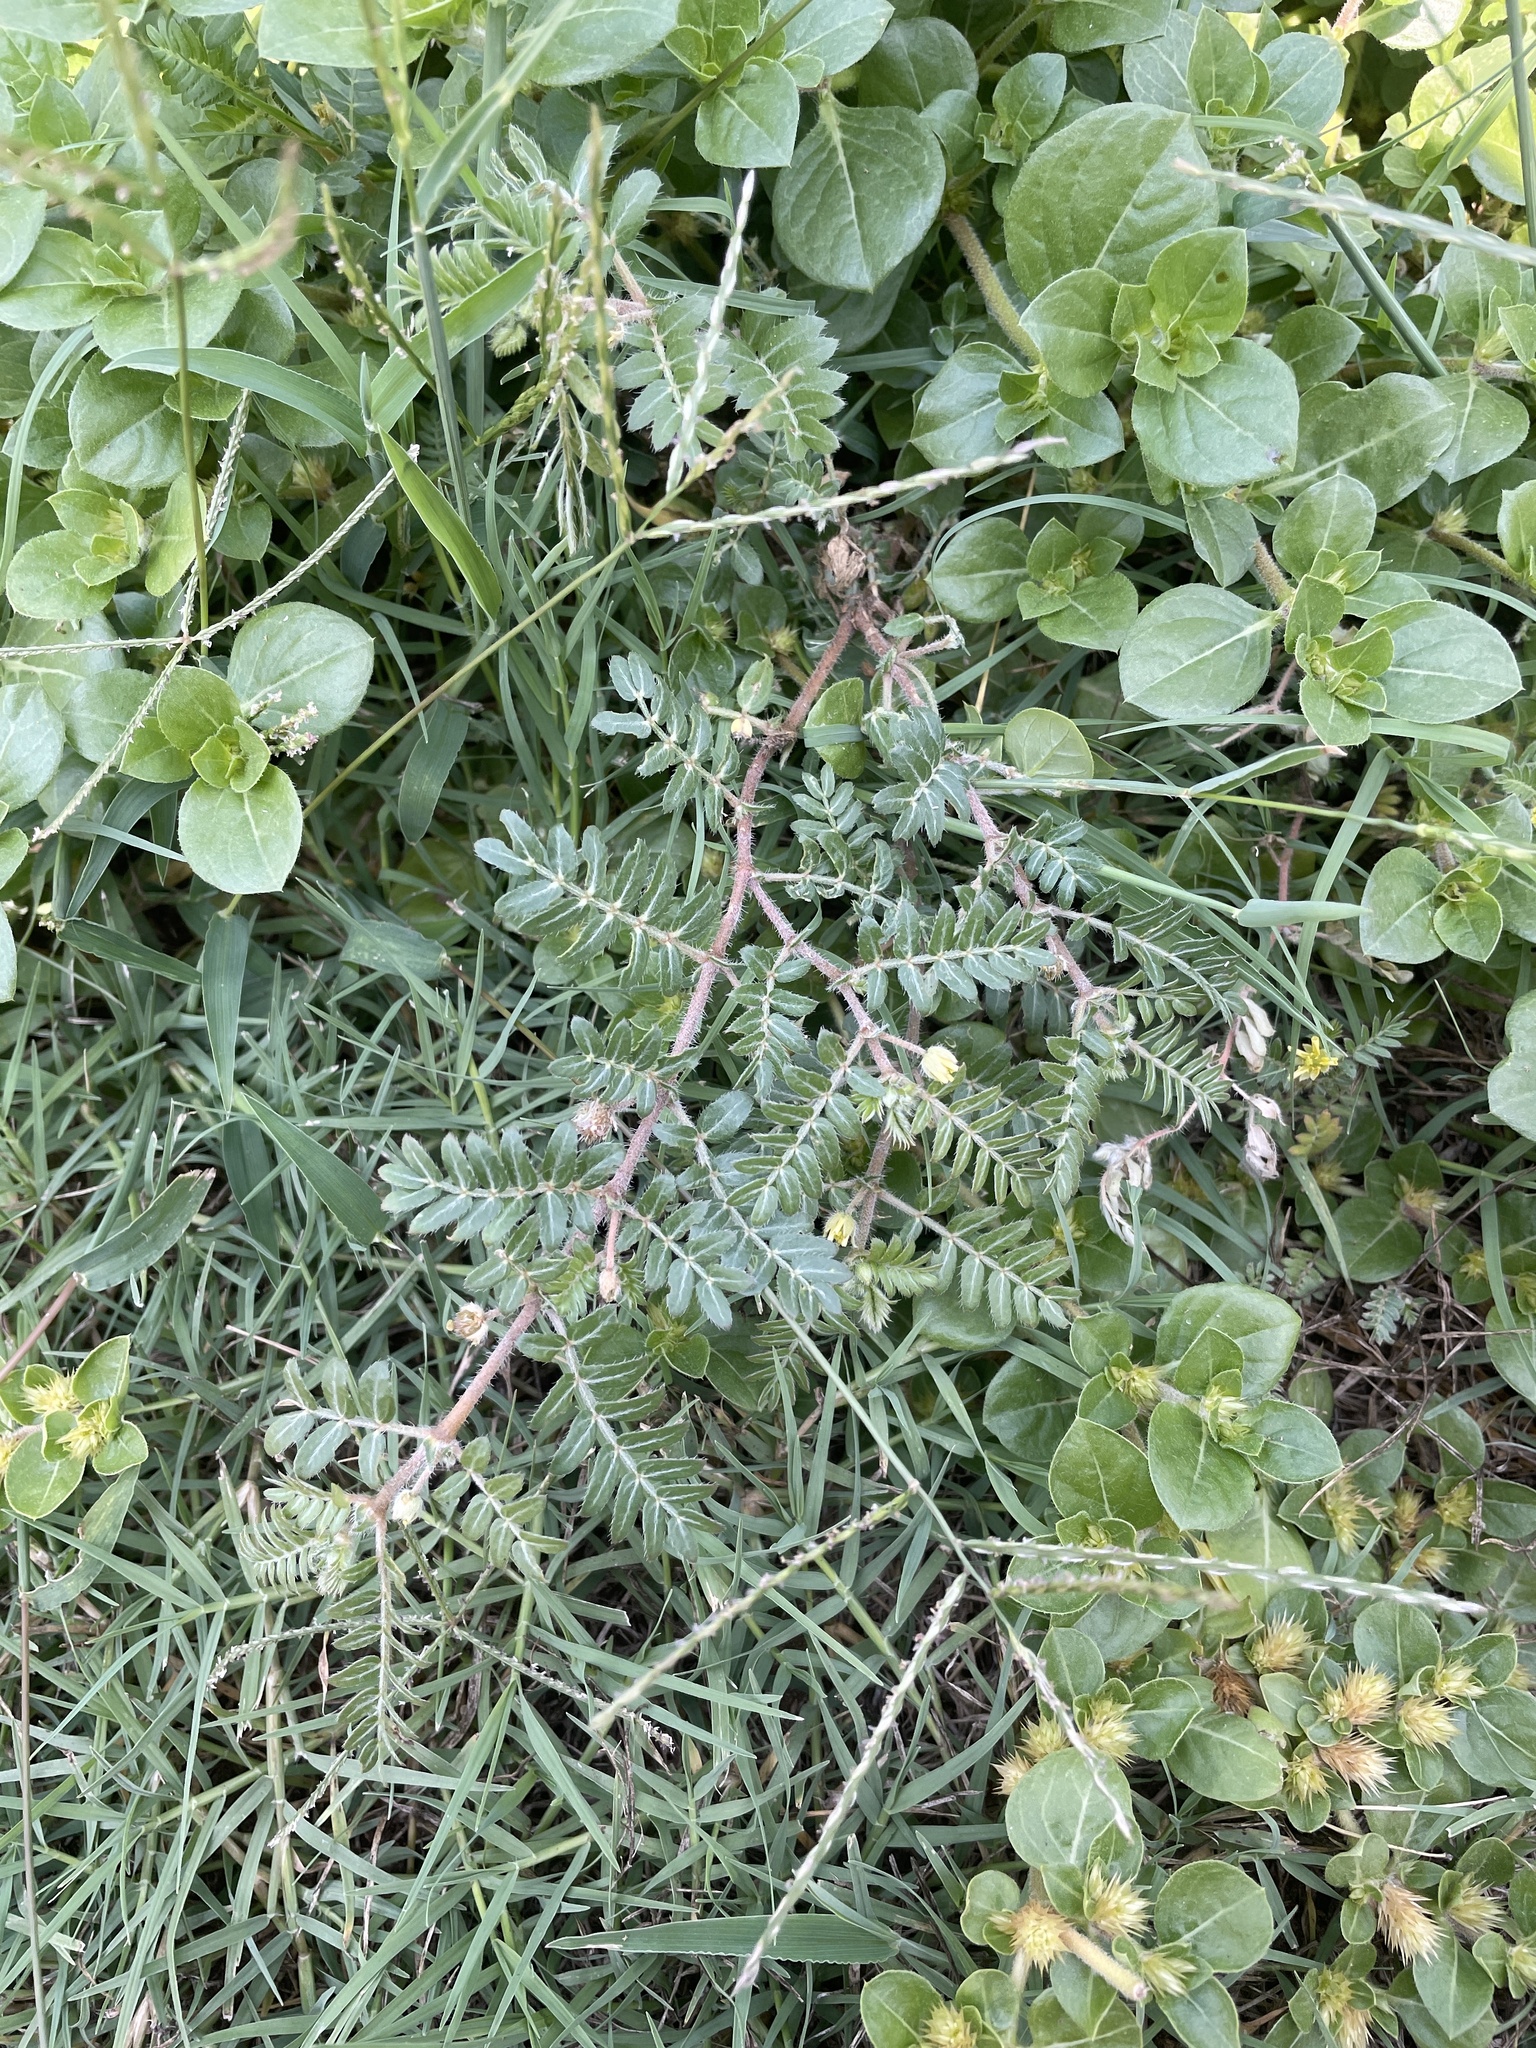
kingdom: Plantae
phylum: Tracheophyta
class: Magnoliopsida
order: Zygophyllales
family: Zygophyllaceae
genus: Tribulus
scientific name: Tribulus terrestris
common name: Puncturevine
